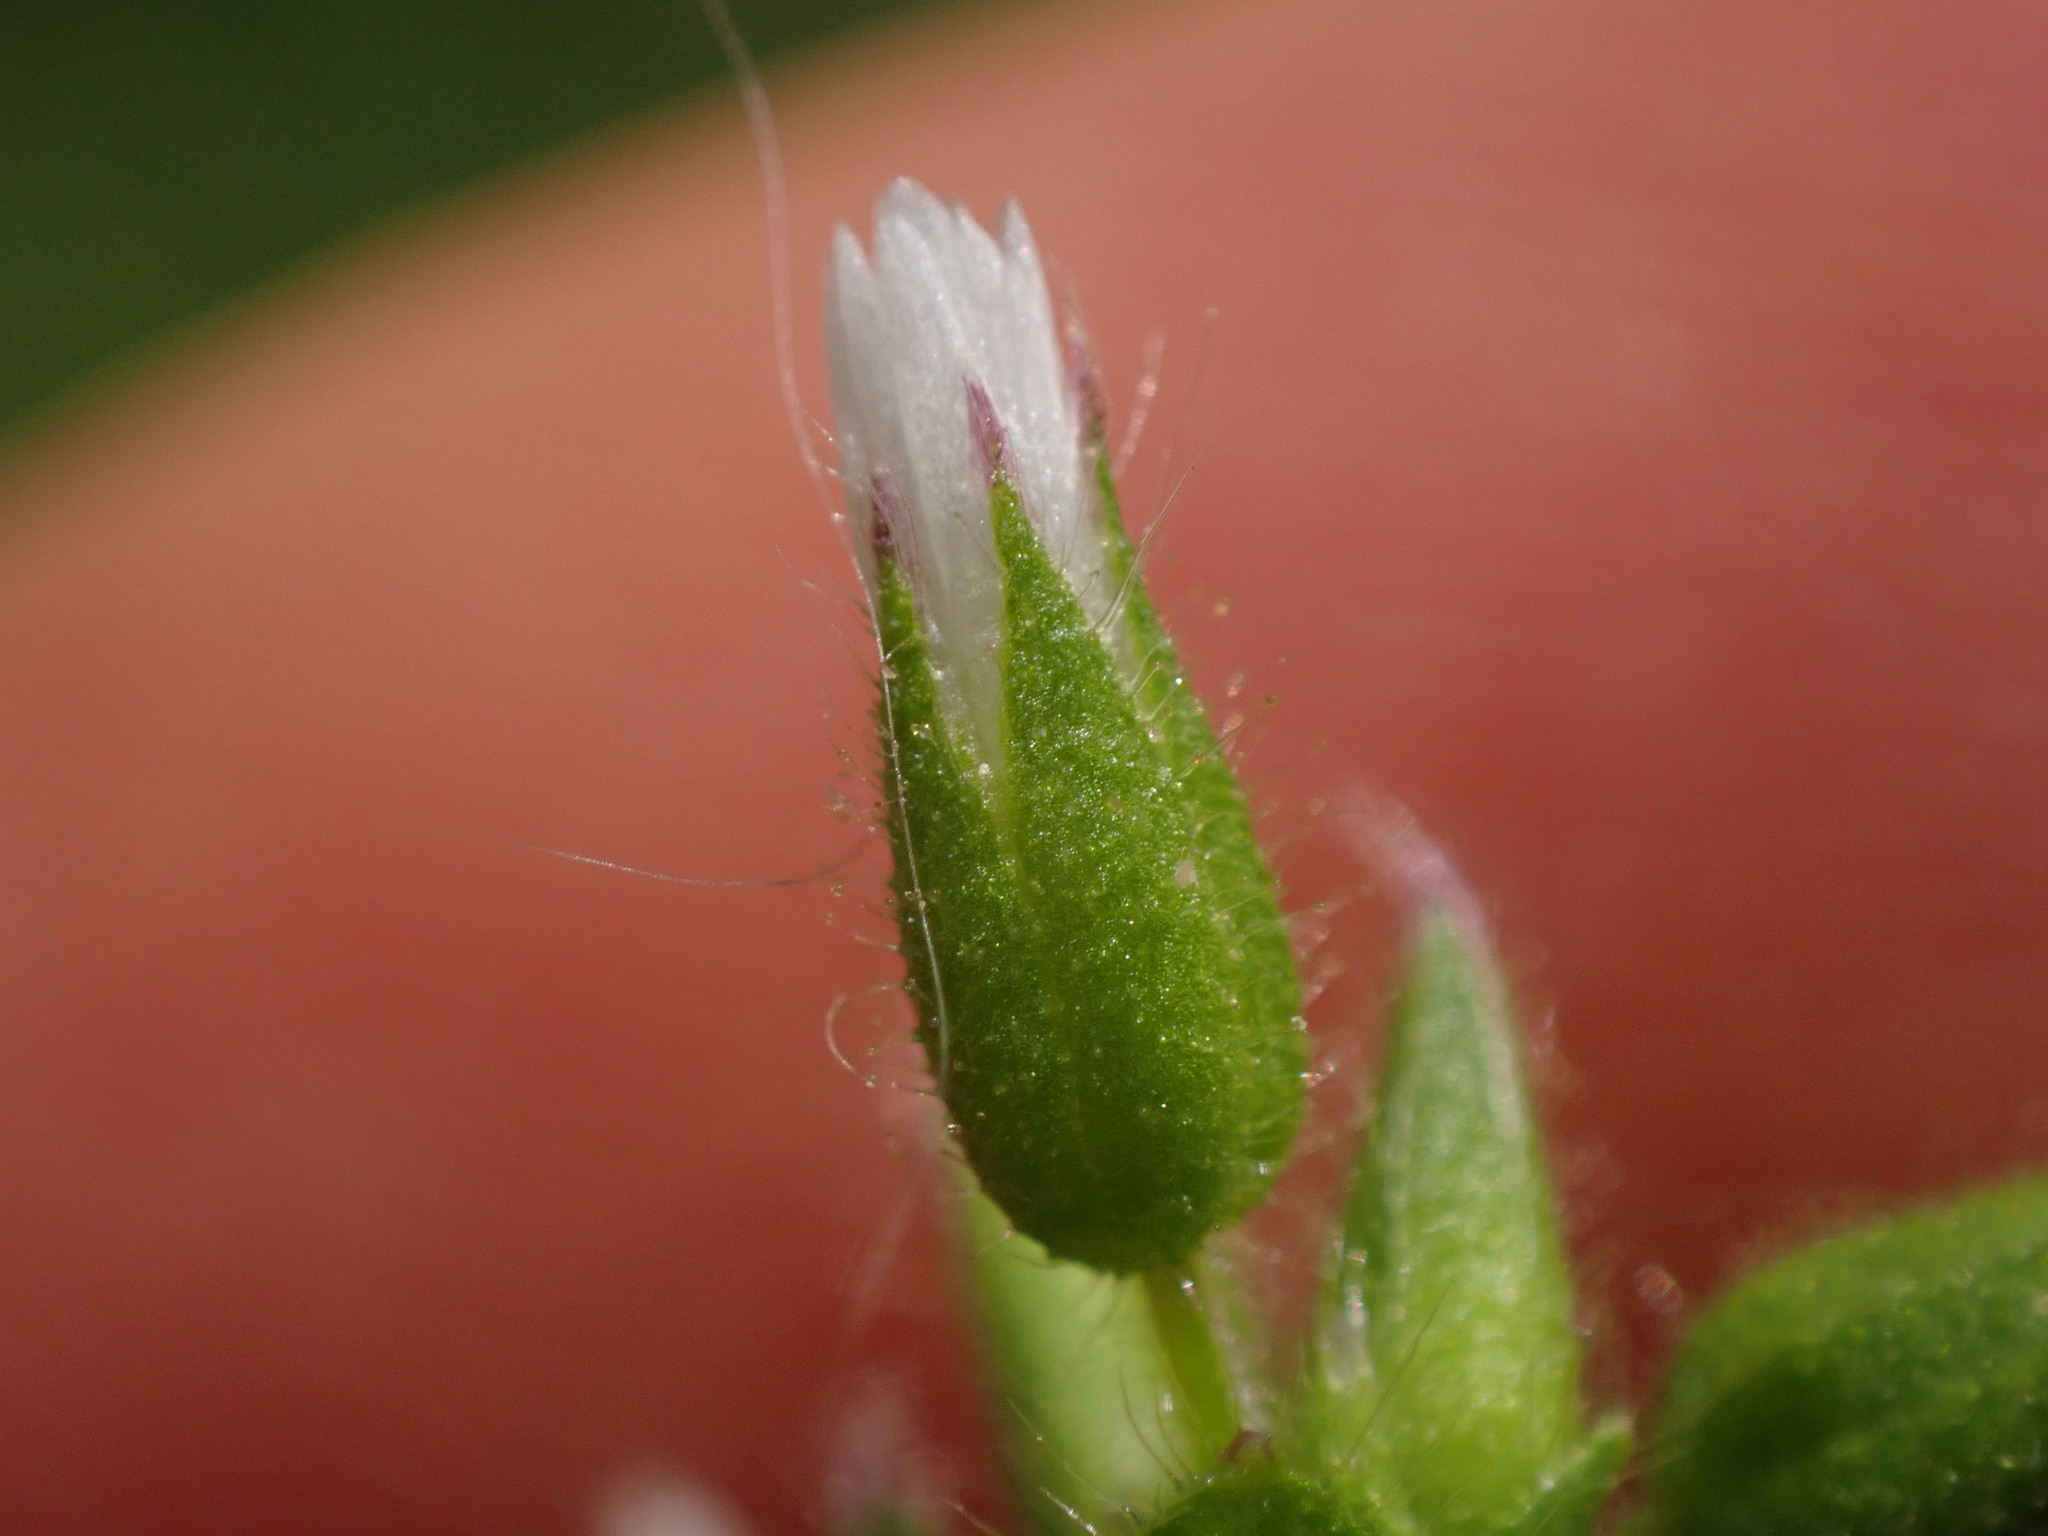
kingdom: Plantae
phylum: Tracheophyta
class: Magnoliopsida
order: Caryophyllales
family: Caryophyllaceae
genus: Cerastium
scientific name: Cerastium glomeratum
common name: Sticky chickweed
